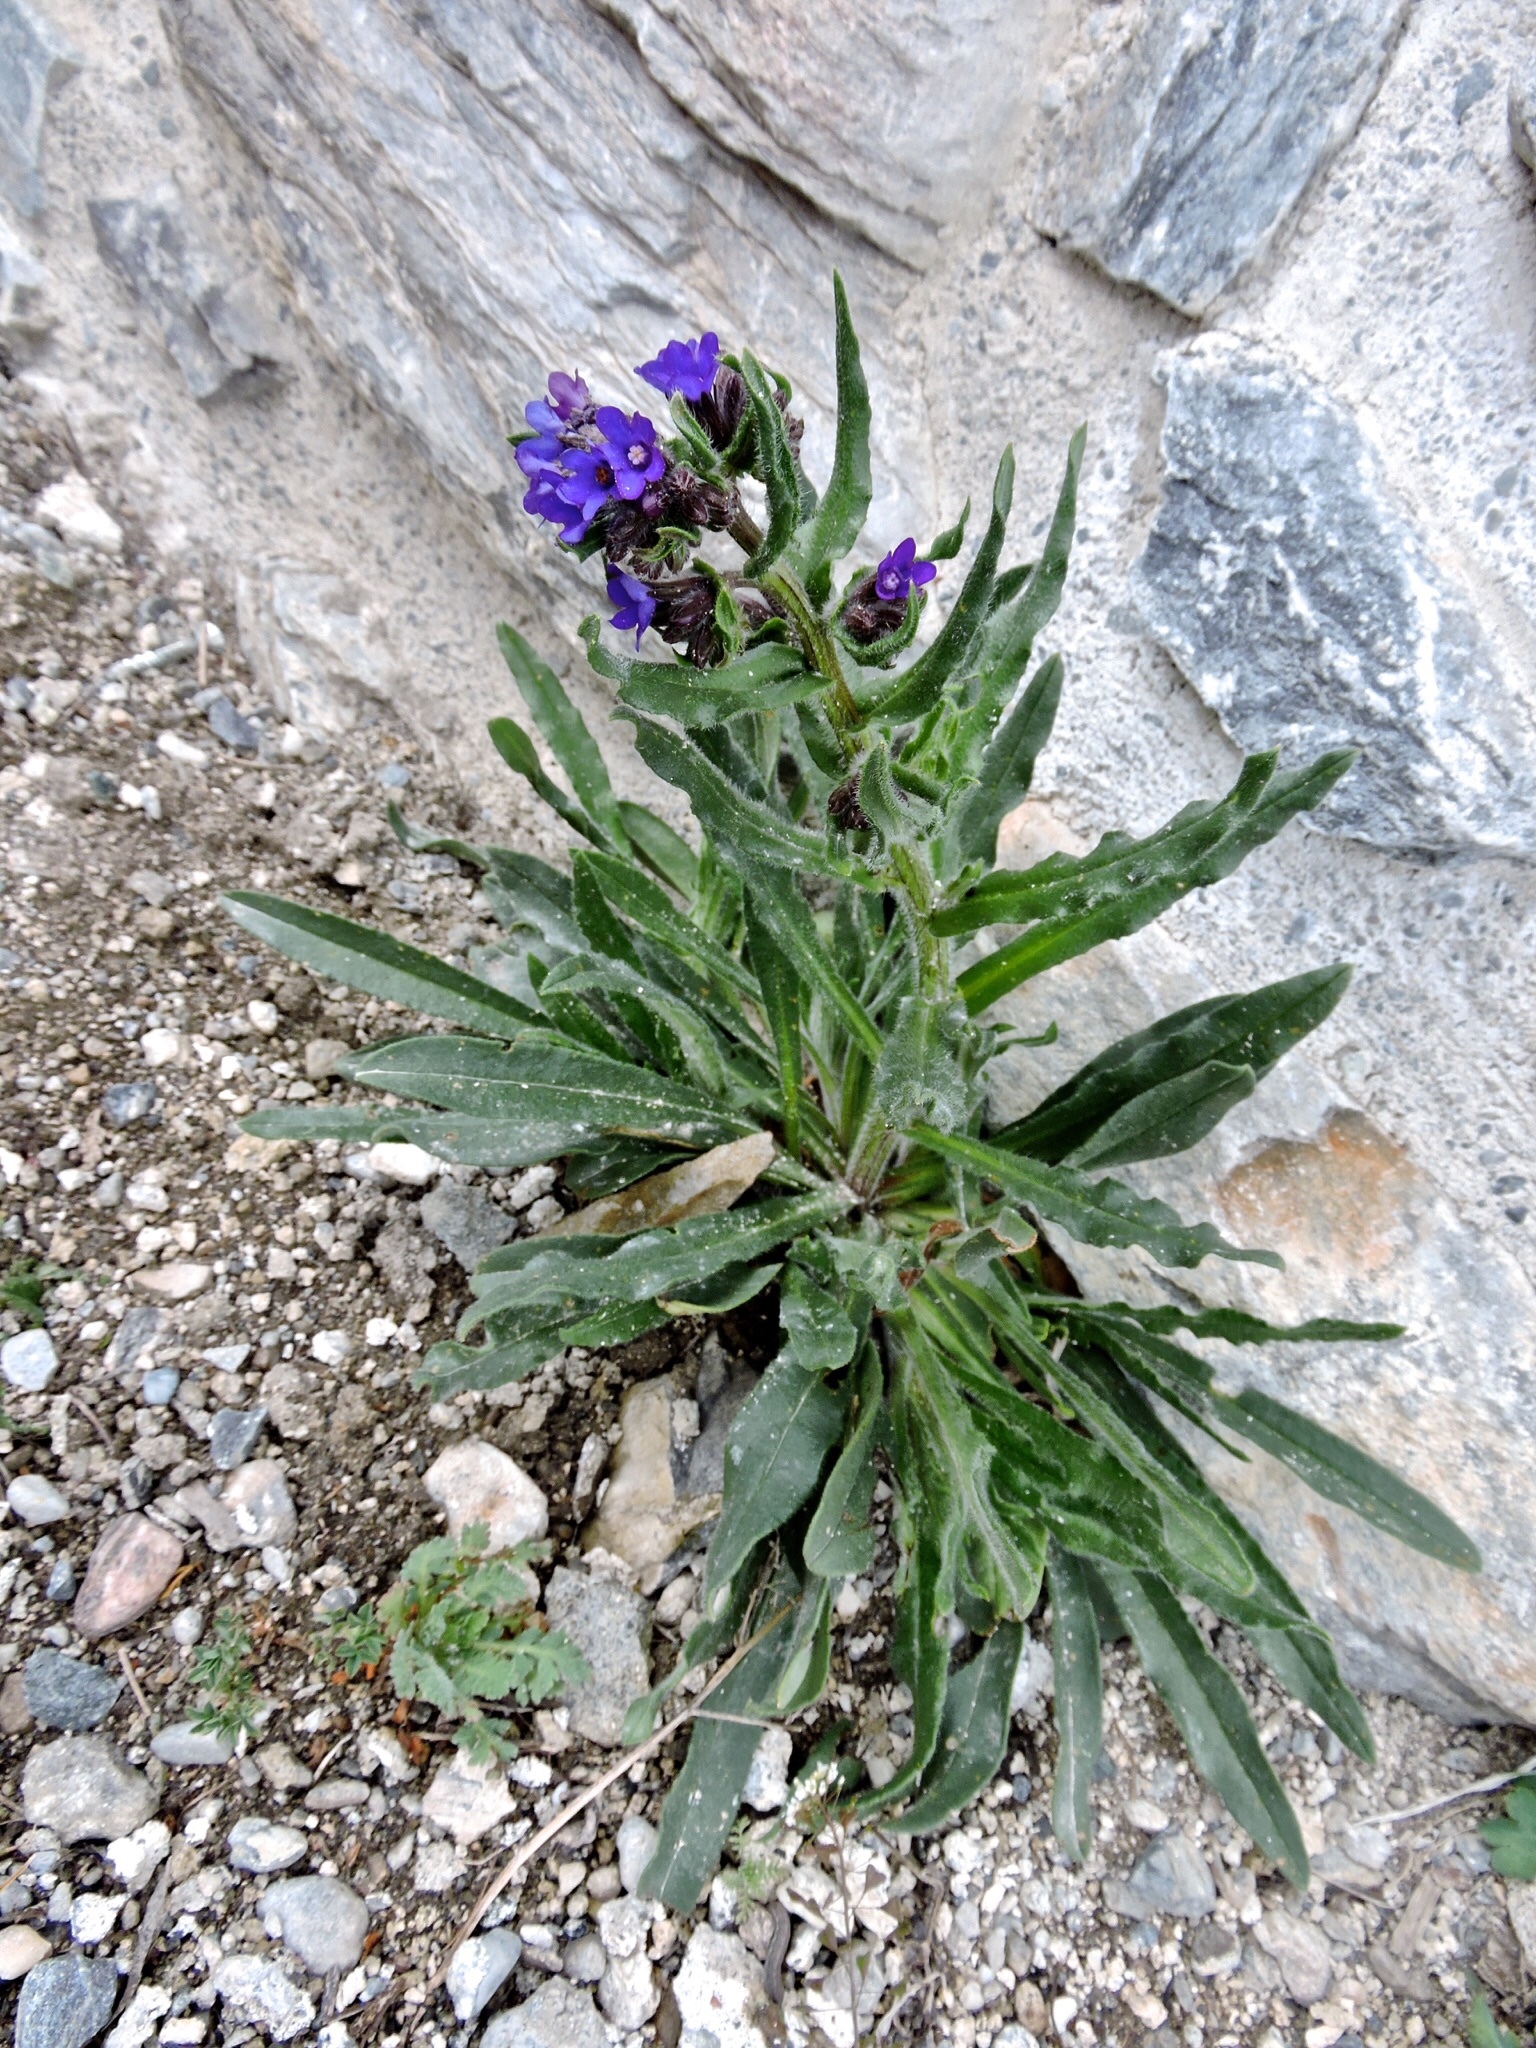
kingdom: Plantae
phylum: Tracheophyta
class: Magnoliopsida
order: Boraginales
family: Boraginaceae
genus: Anchusa
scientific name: Anchusa officinalis
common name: Alkanet
